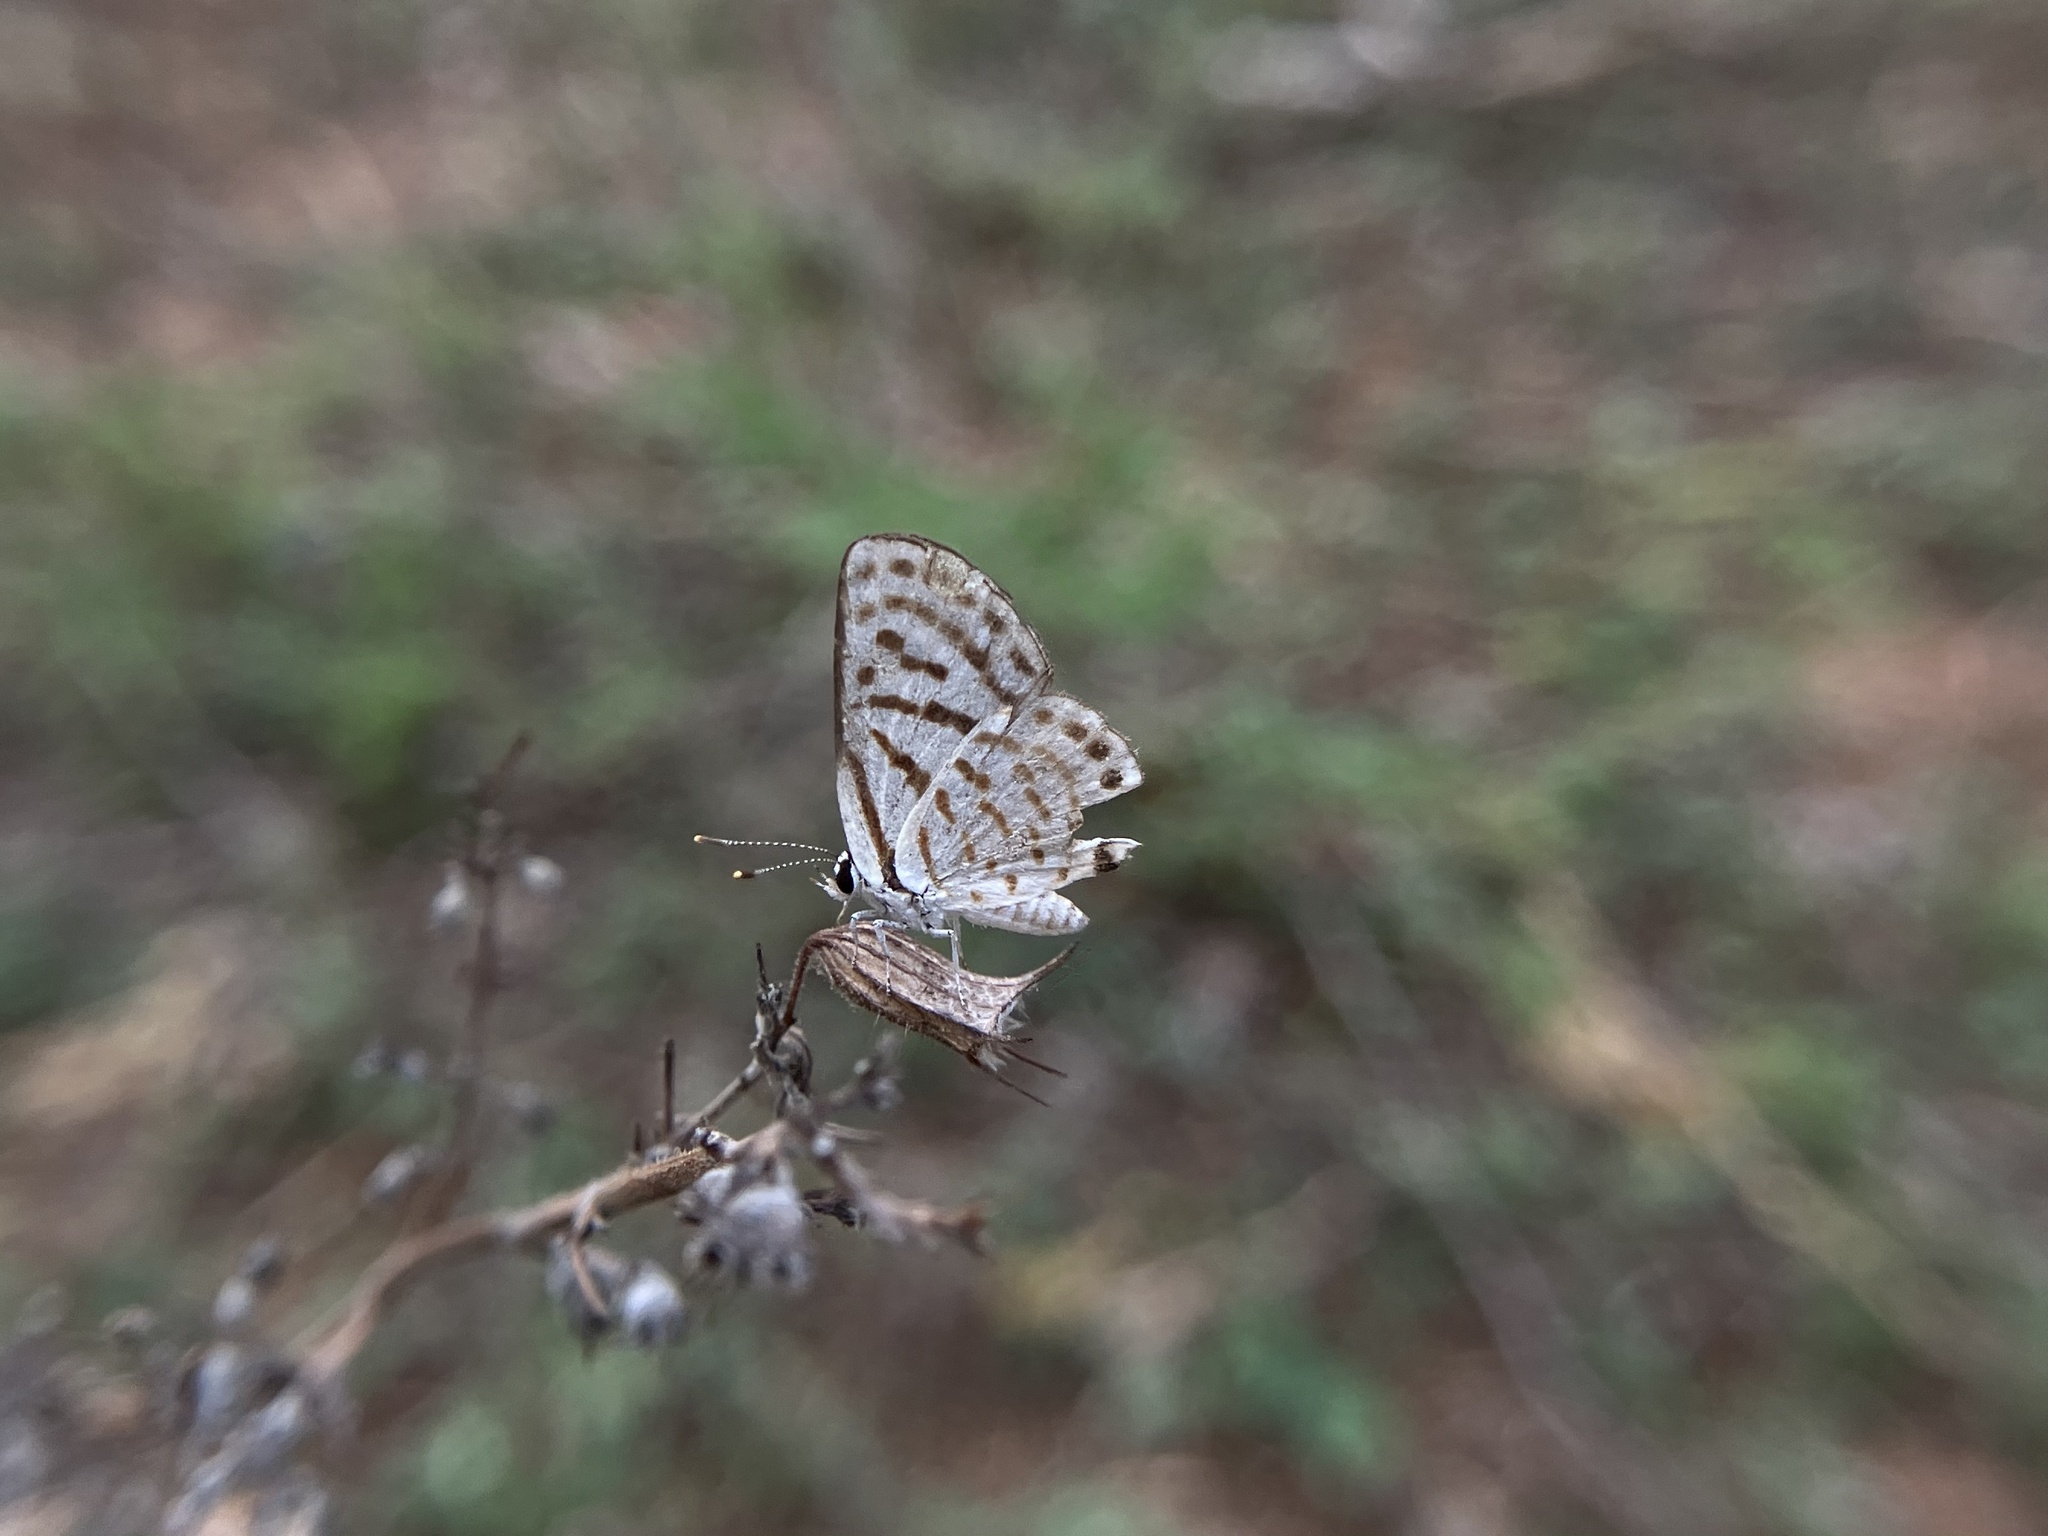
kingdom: Animalia
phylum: Arthropoda
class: Insecta
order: Lepidoptera
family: Lycaenidae
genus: Tarucus
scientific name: Tarucus
